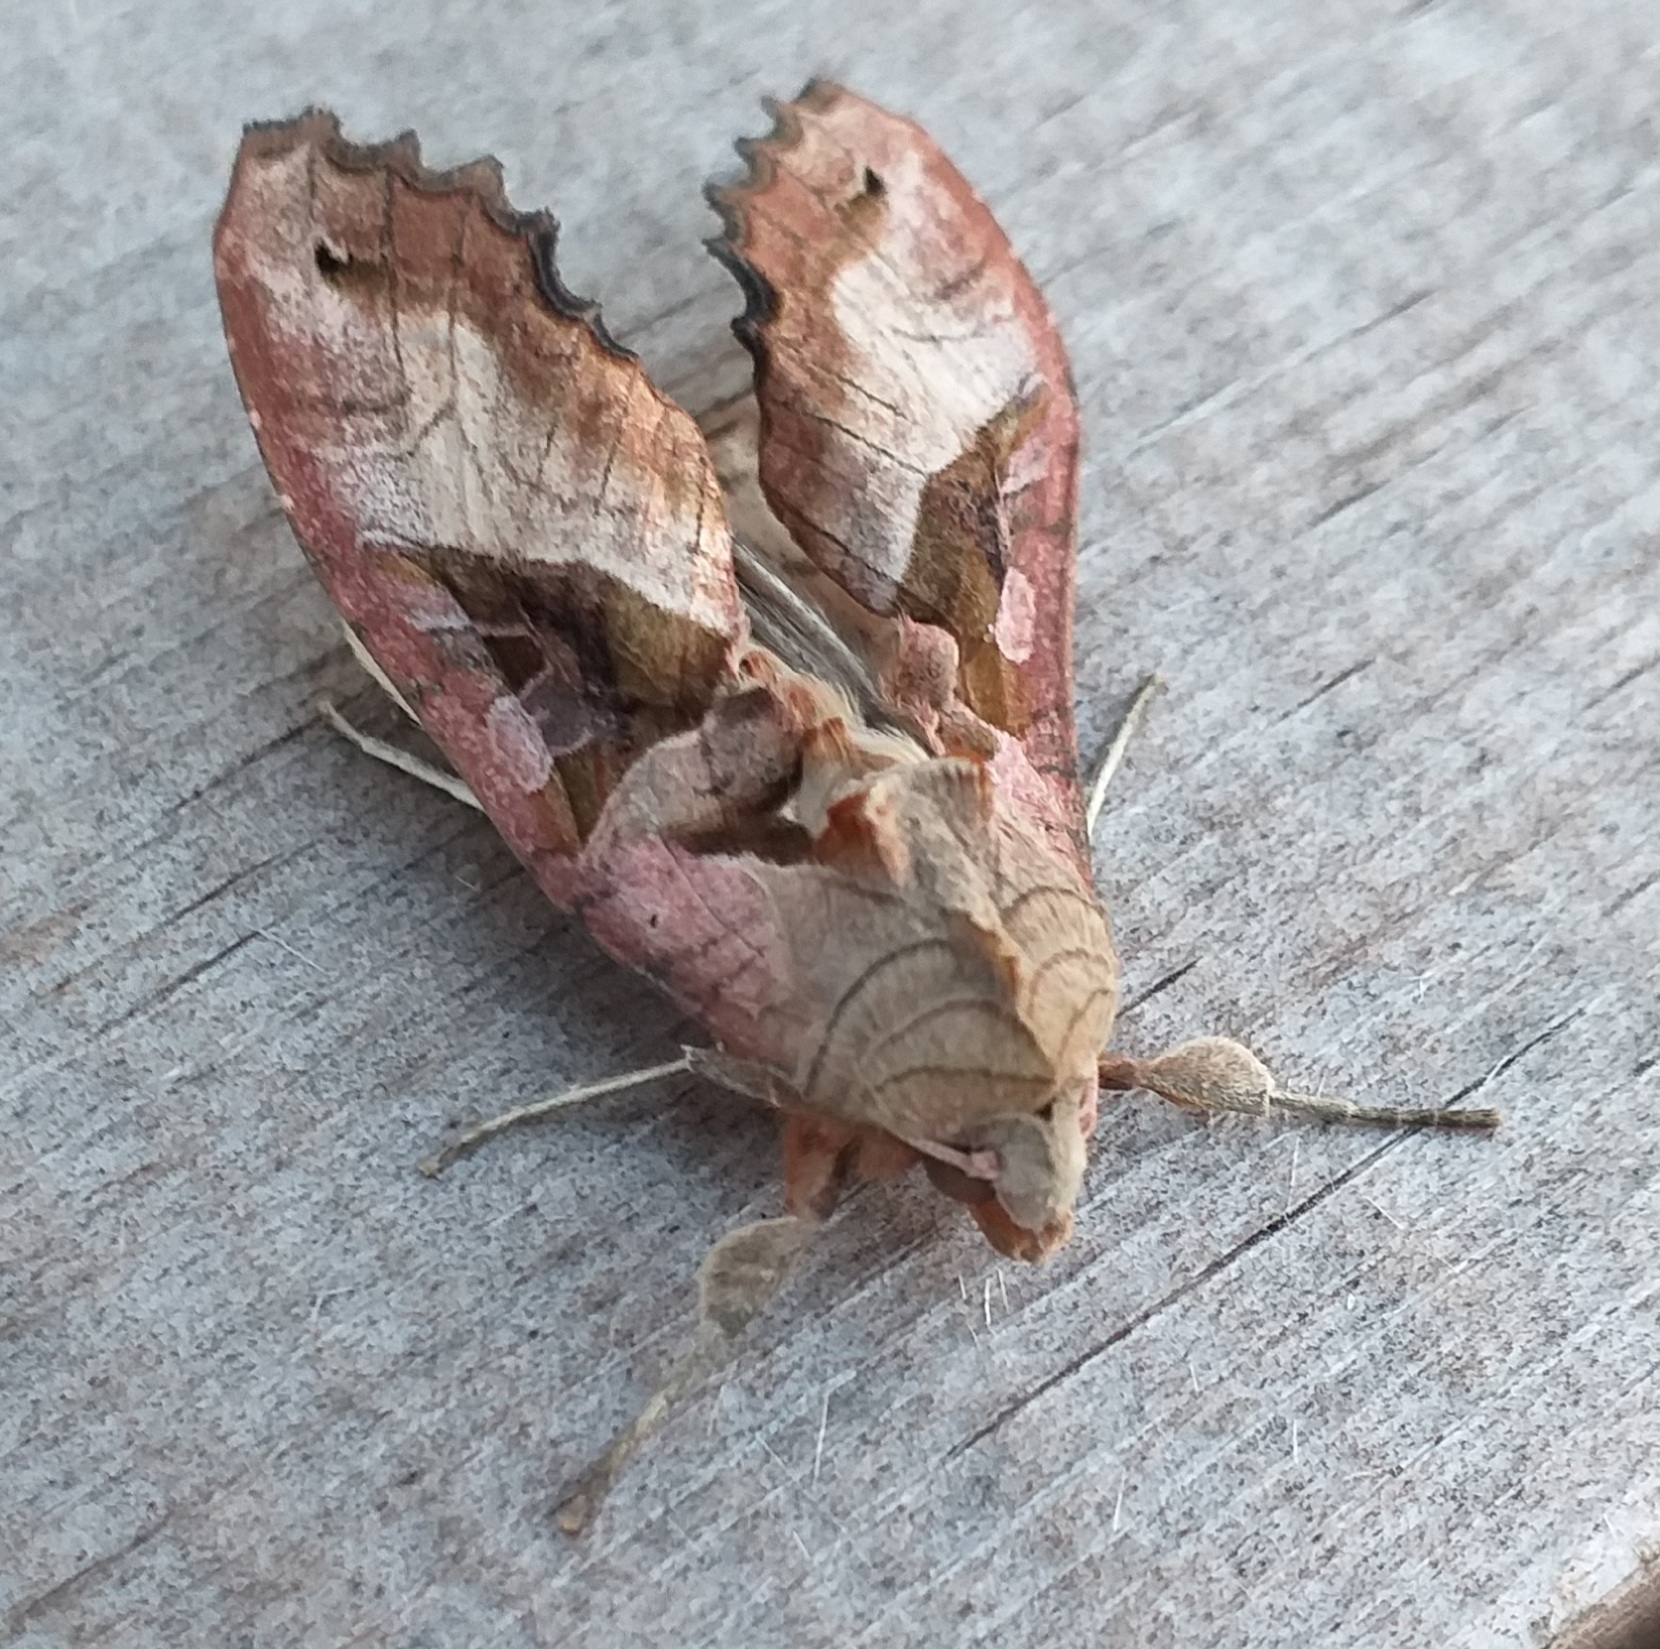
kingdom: Animalia
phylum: Arthropoda
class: Insecta
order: Lepidoptera
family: Noctuidae
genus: Phlogophora
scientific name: Phlogophora meticulosa
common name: Angle shades
